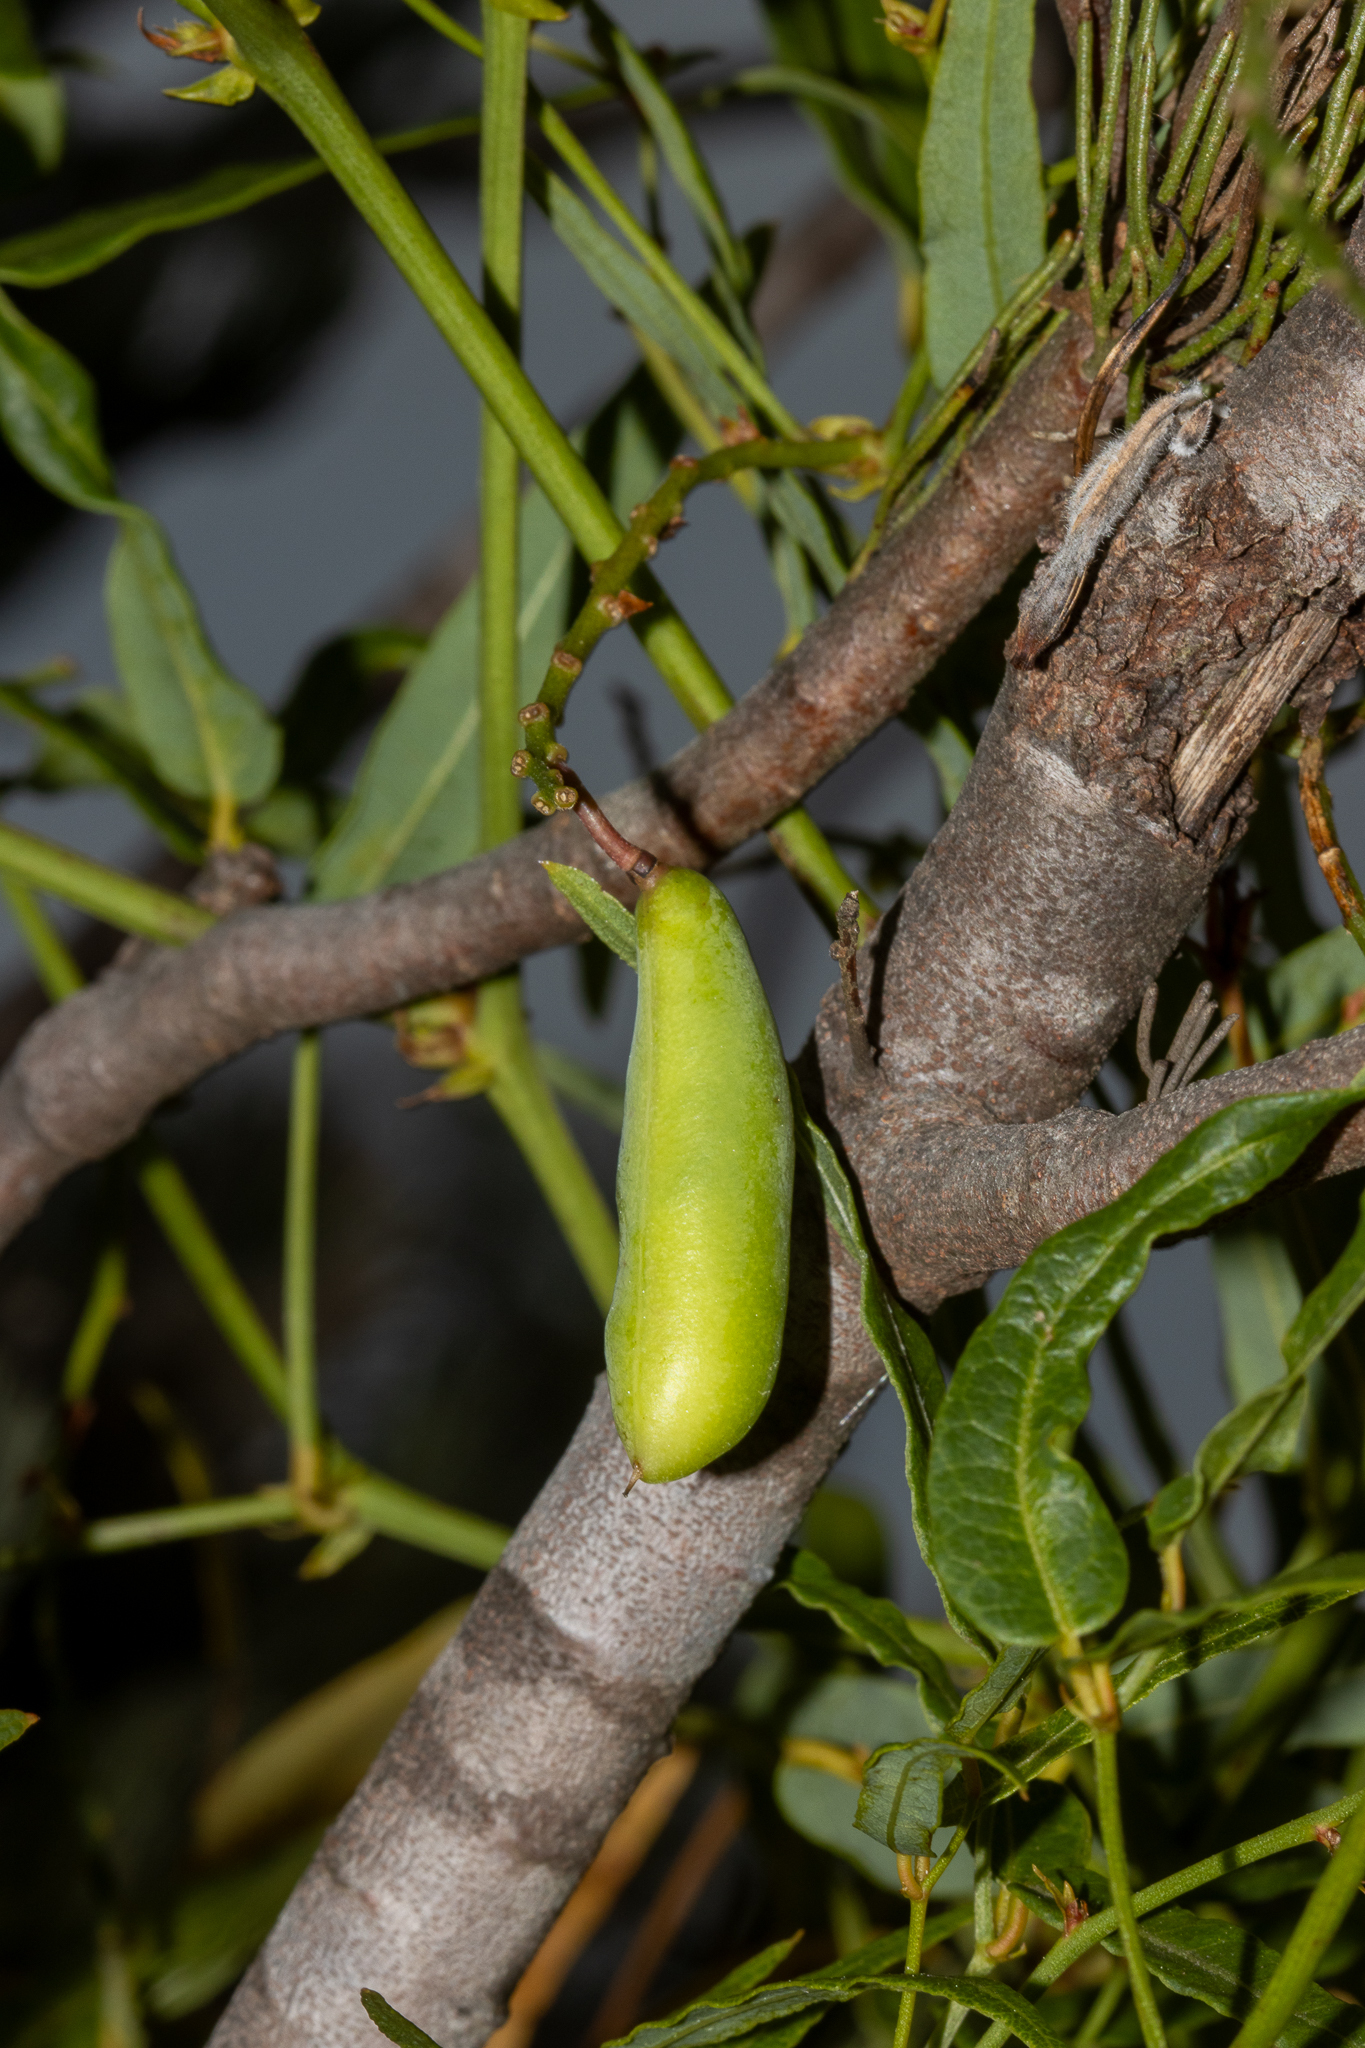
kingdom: Plantae
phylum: Tracheophyta
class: Magnoliopsida
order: Fabales
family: Fabaceae
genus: Hardenbergia
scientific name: Hardenbergia comptoniana
